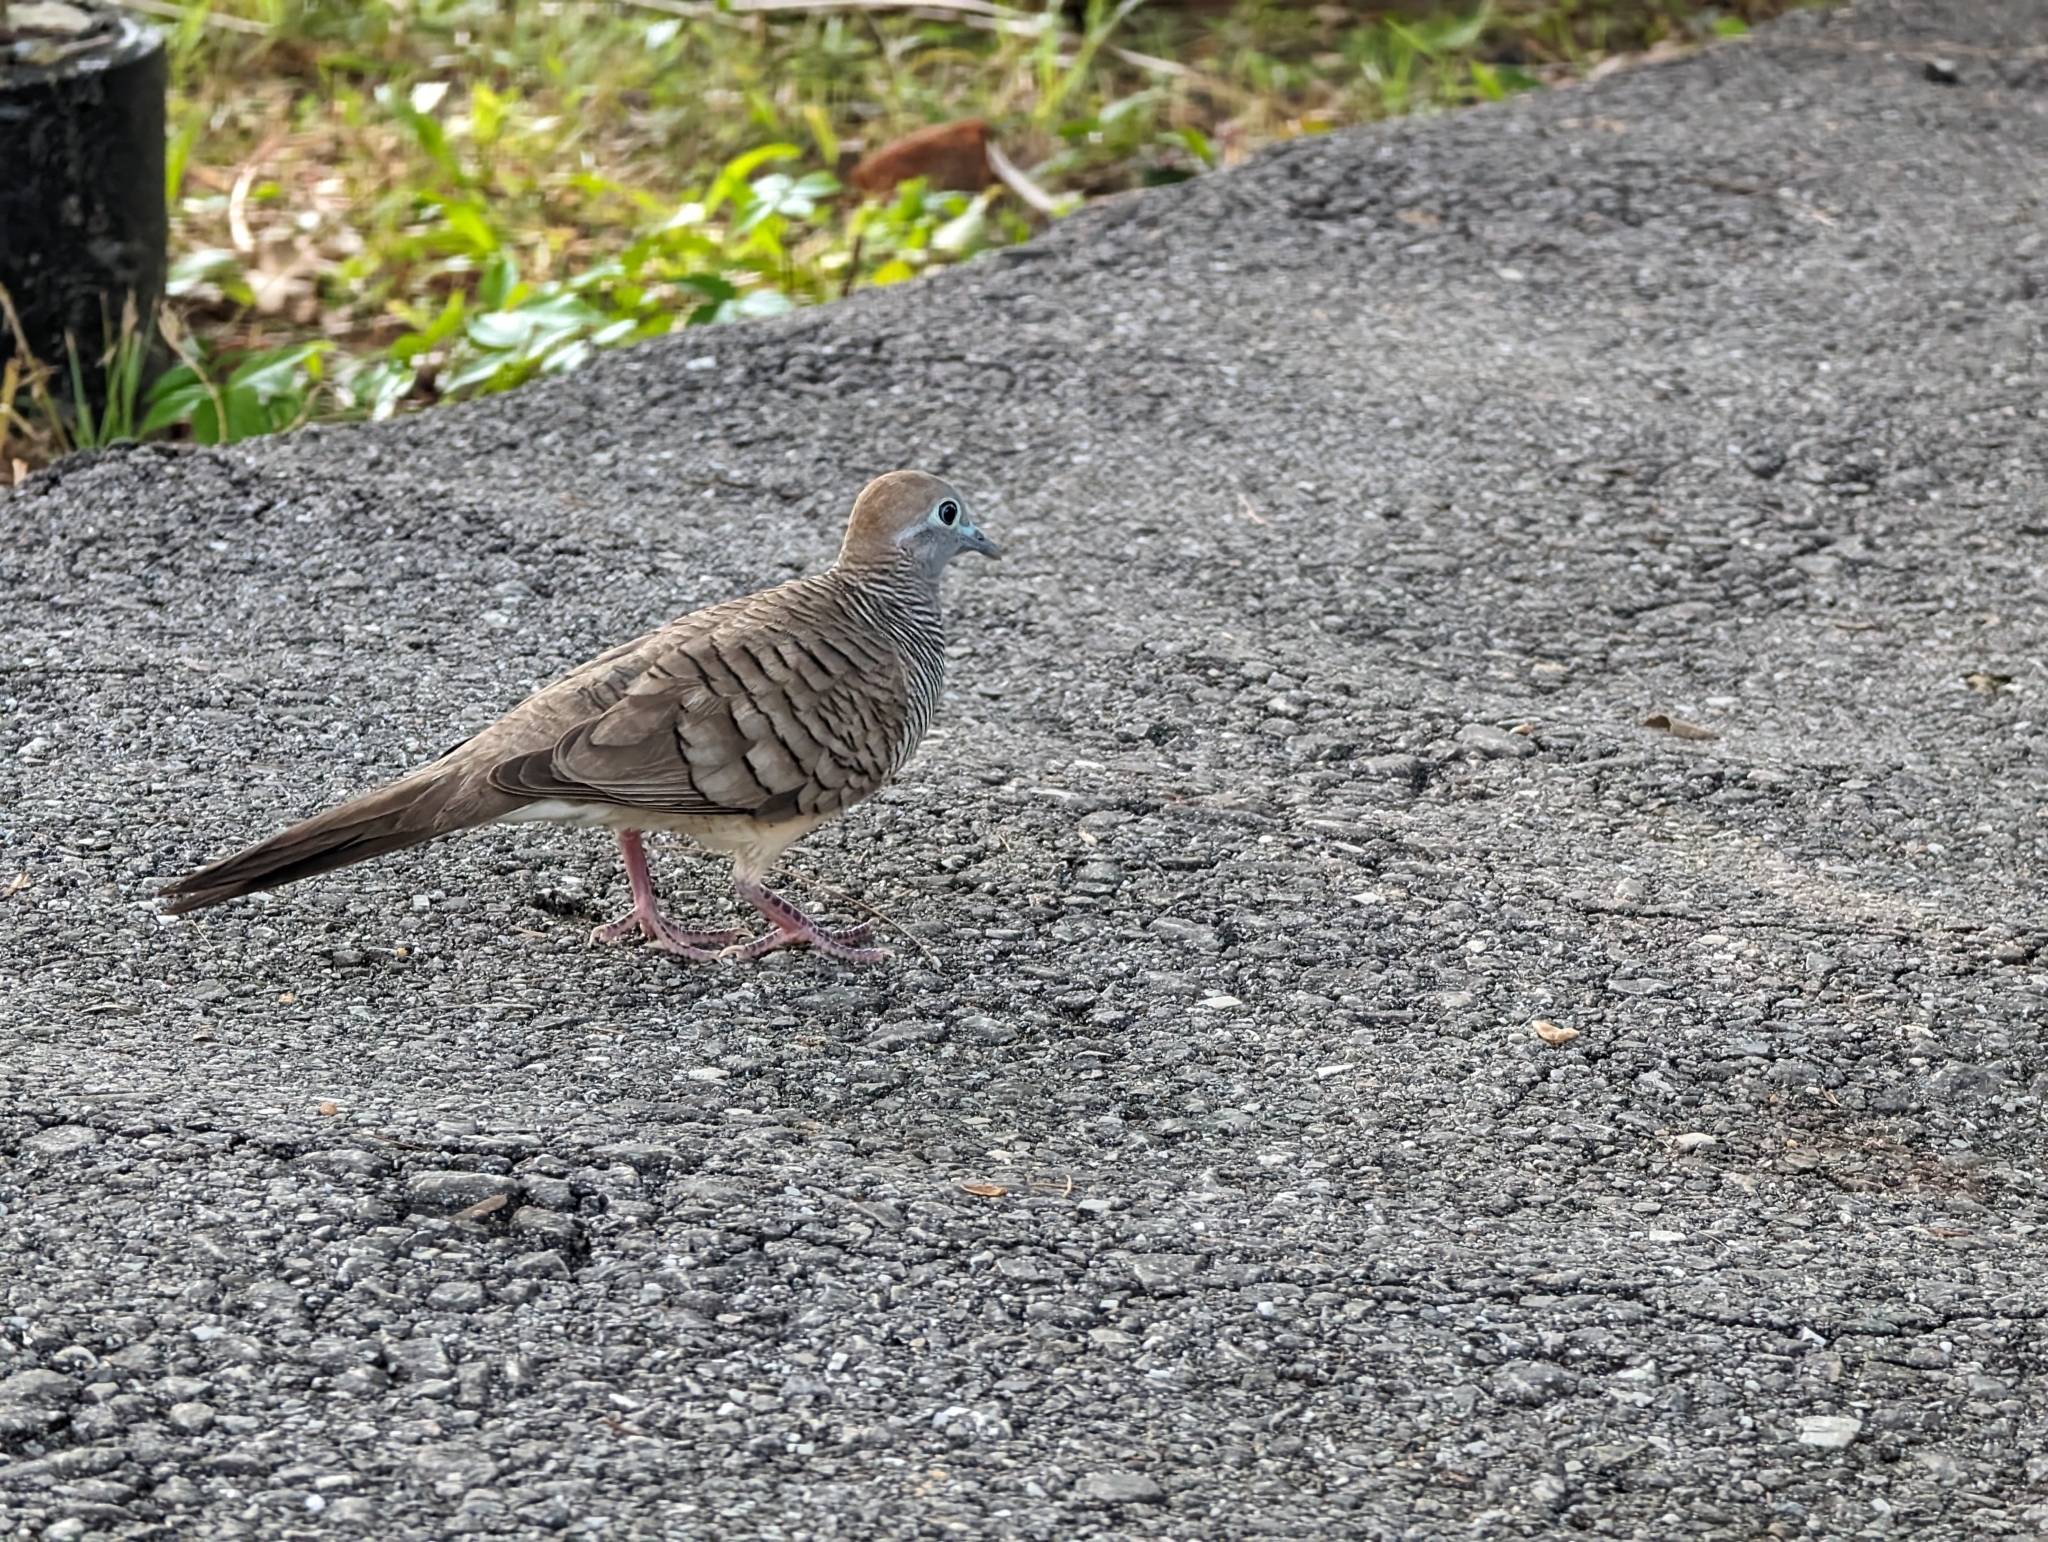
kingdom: Animalia
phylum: Chordata
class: Aves
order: Columbiformes
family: Columbidae
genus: Geopelia
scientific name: Geopelia striata
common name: Zebra dove
